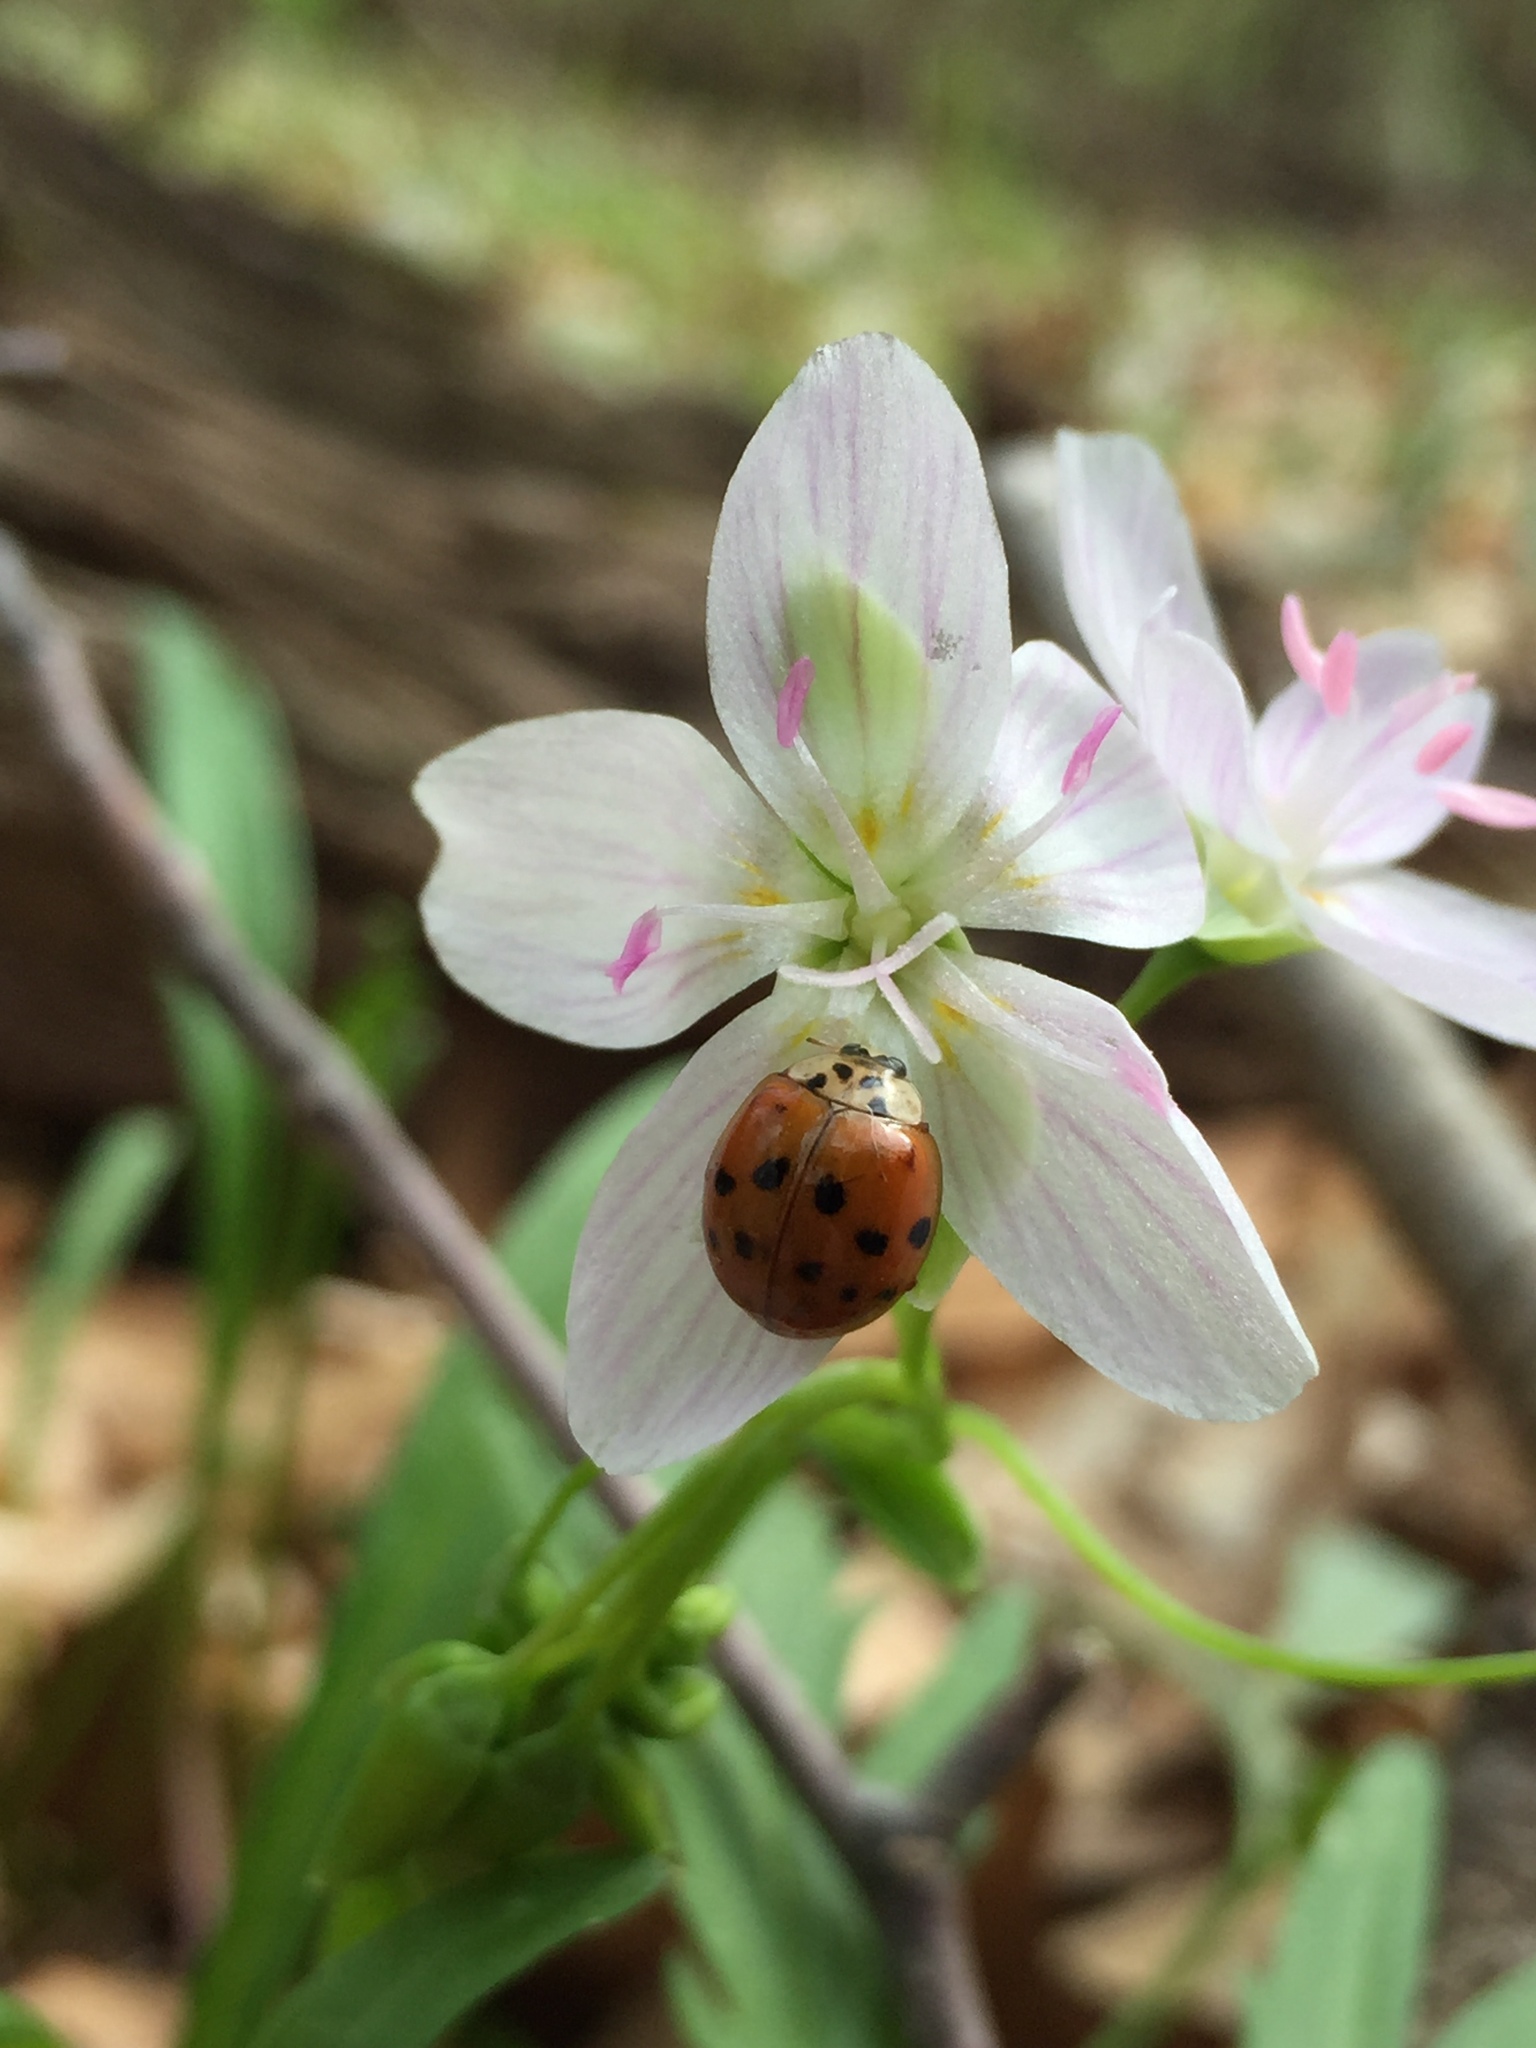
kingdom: Animalia
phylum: Arthropoda
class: Insecta
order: Coleoptera
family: Coccinellidae
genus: Harmonia
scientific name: Harmonia axyridis
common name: Harlequin ladybird
